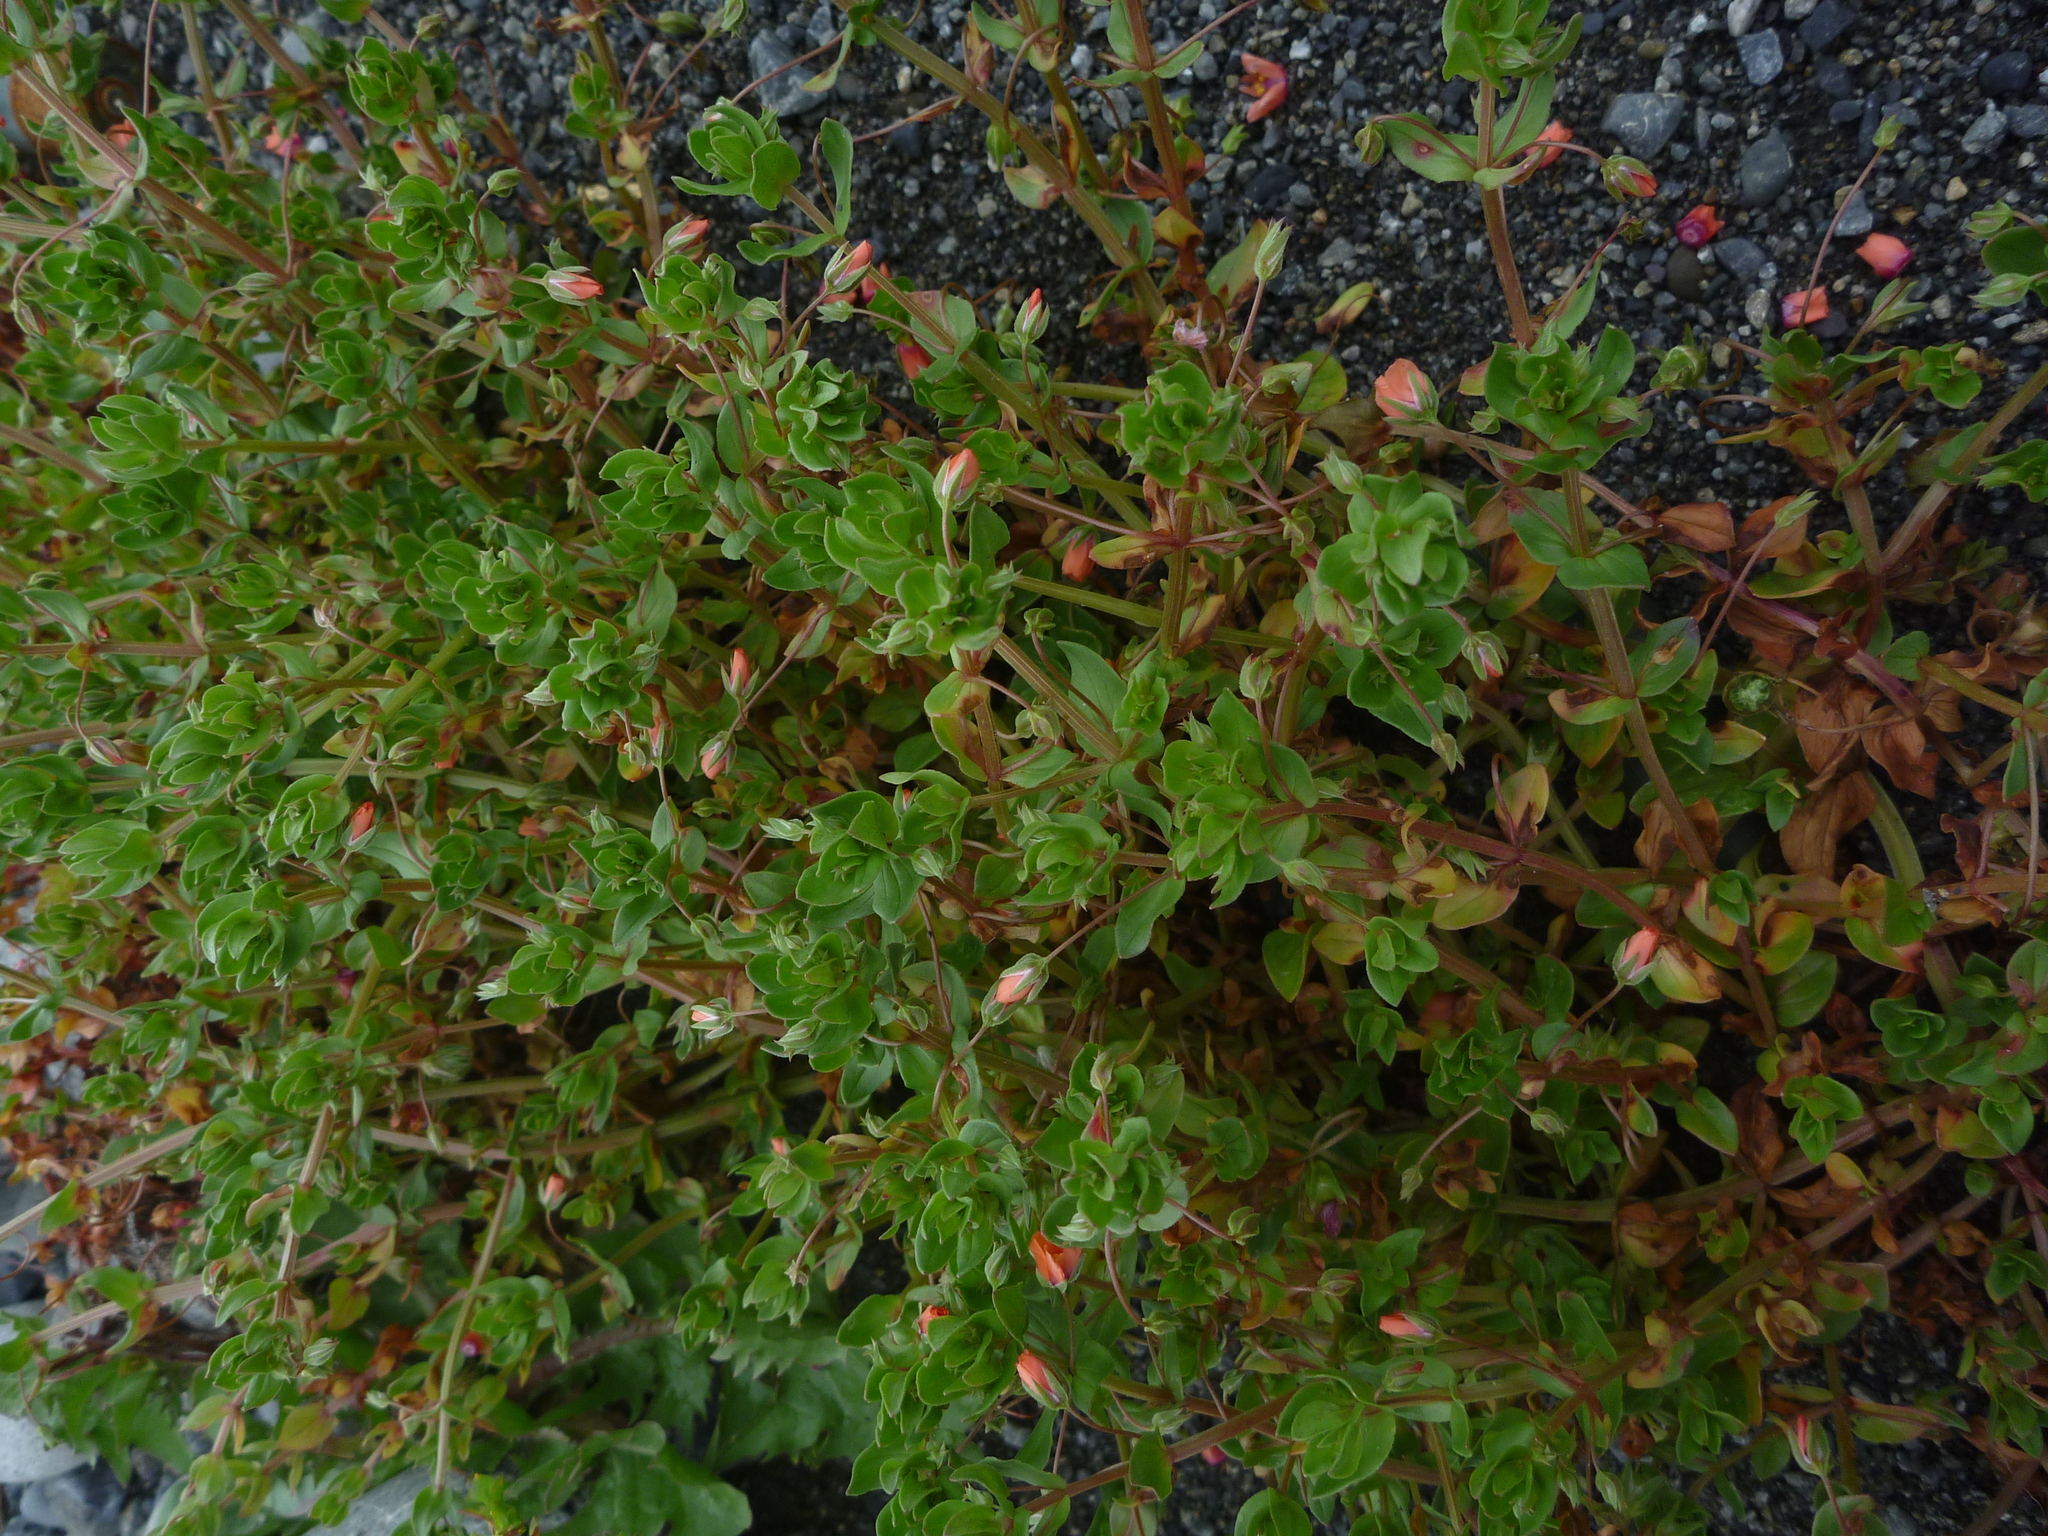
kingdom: Plantae
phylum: Tracheophyta
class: Magnoliopsida
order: Ericales
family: Primulaceae
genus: Lysimachia
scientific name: Lysimachia arvensis
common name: Scarlet pimpernel
